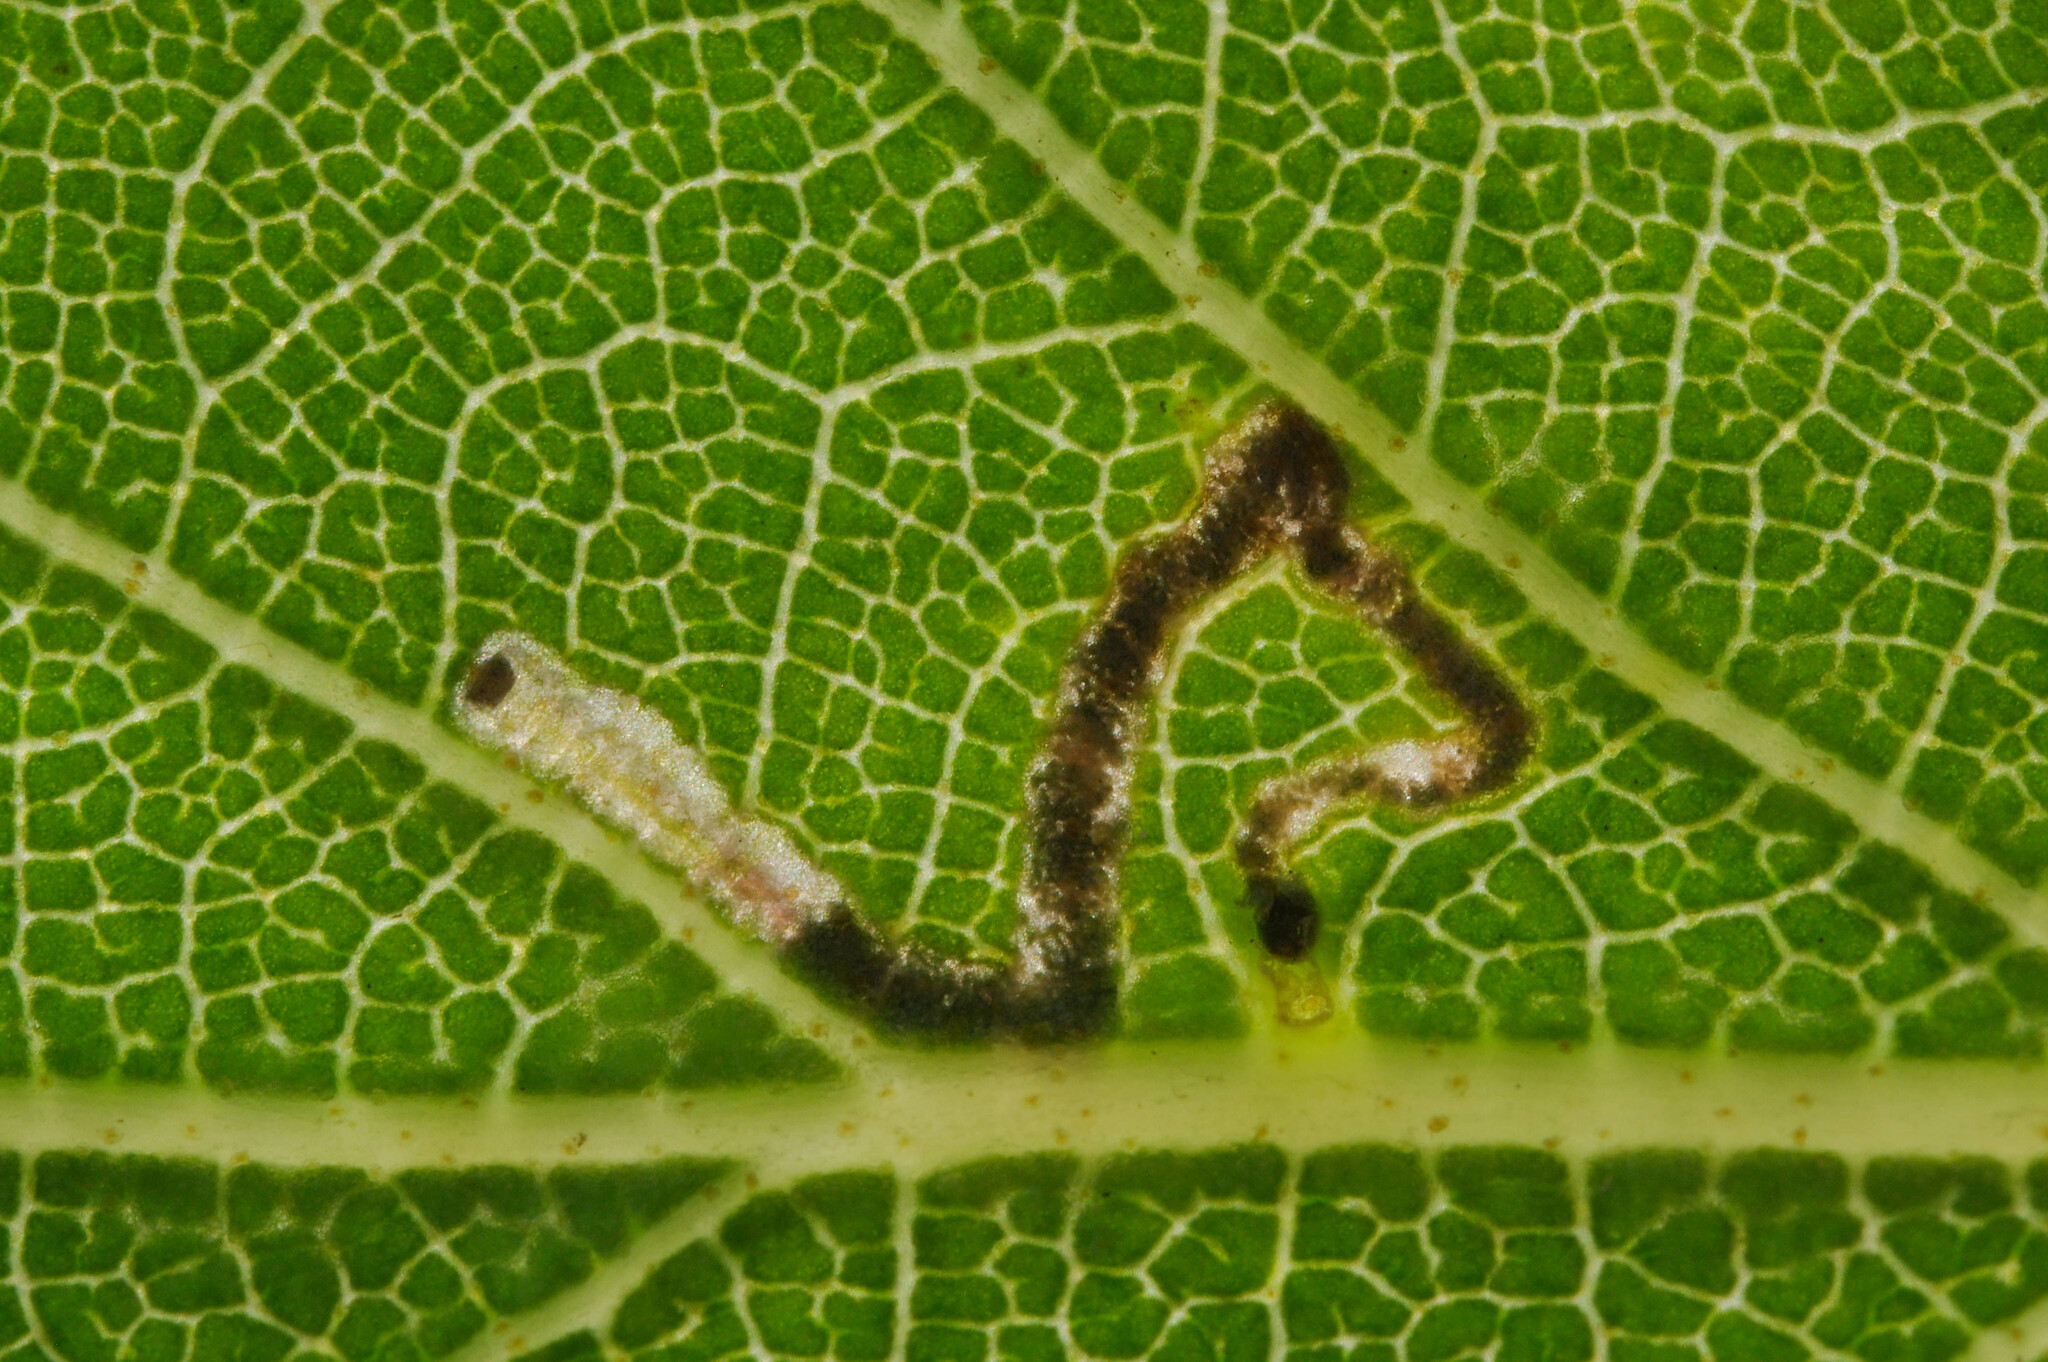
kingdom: Animalia
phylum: Arthropoda
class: Insecta
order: Lepidoptera
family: Eriocraniidae
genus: Eriocrania
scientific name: Eriocrania sparrmannella
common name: Mottled purple
